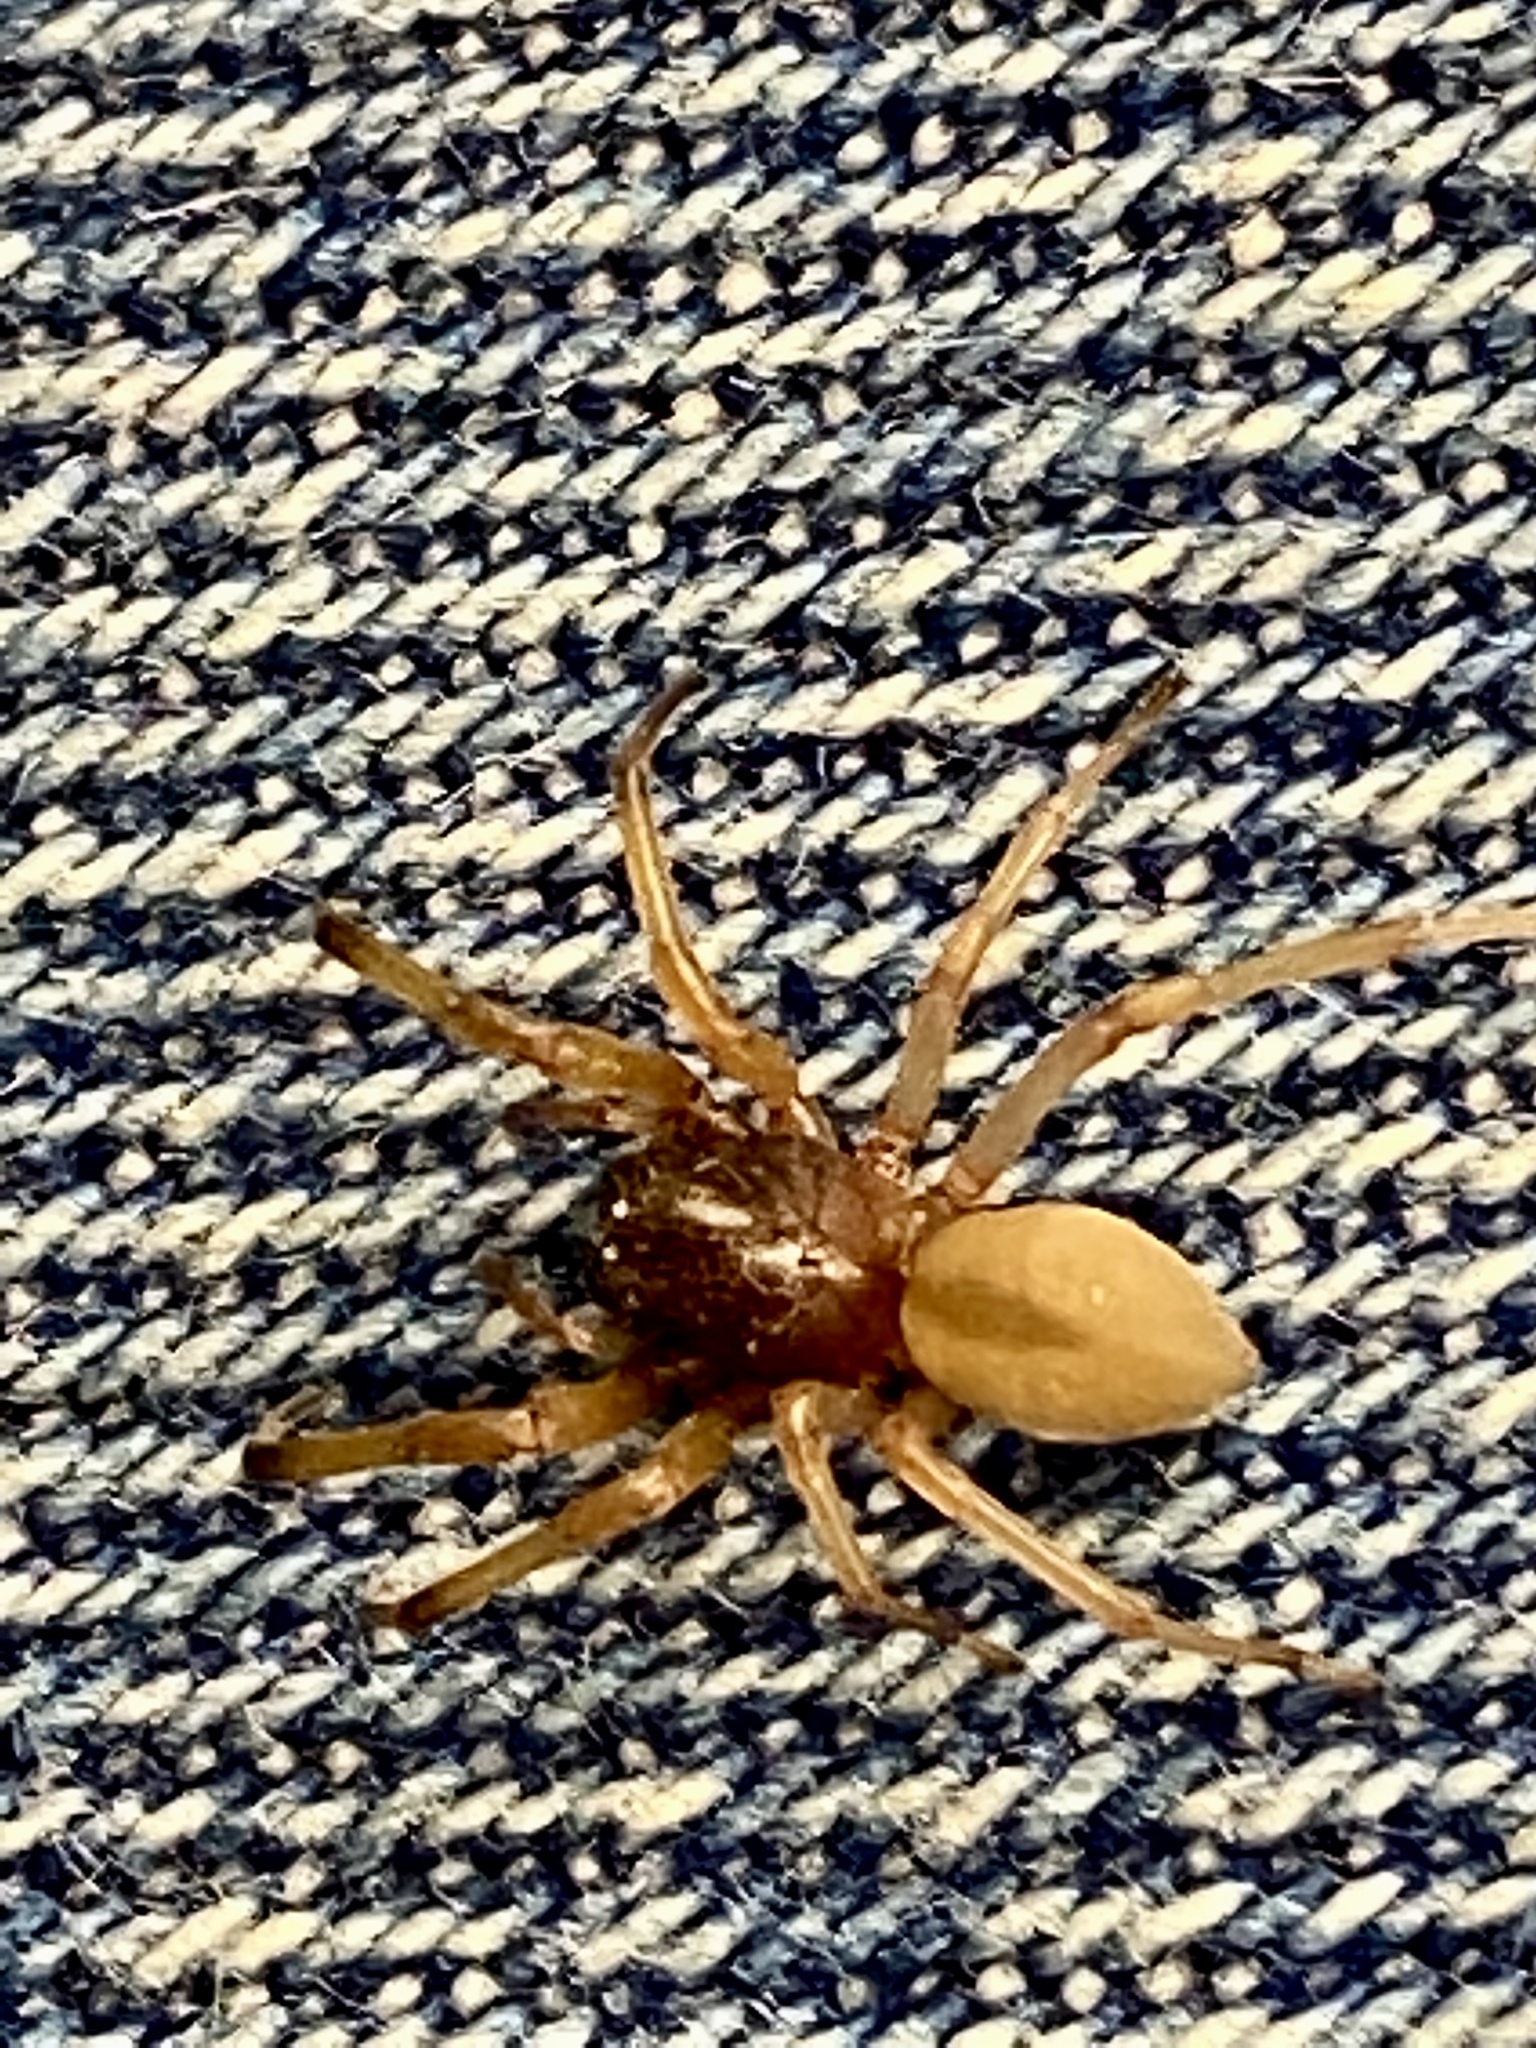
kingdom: Animalia
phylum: Arthropoda
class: Arachnida
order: Araneae
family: Trachelidae
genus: Trachelas
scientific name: Trachelas tranquillus
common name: Broad-faced sac spider
